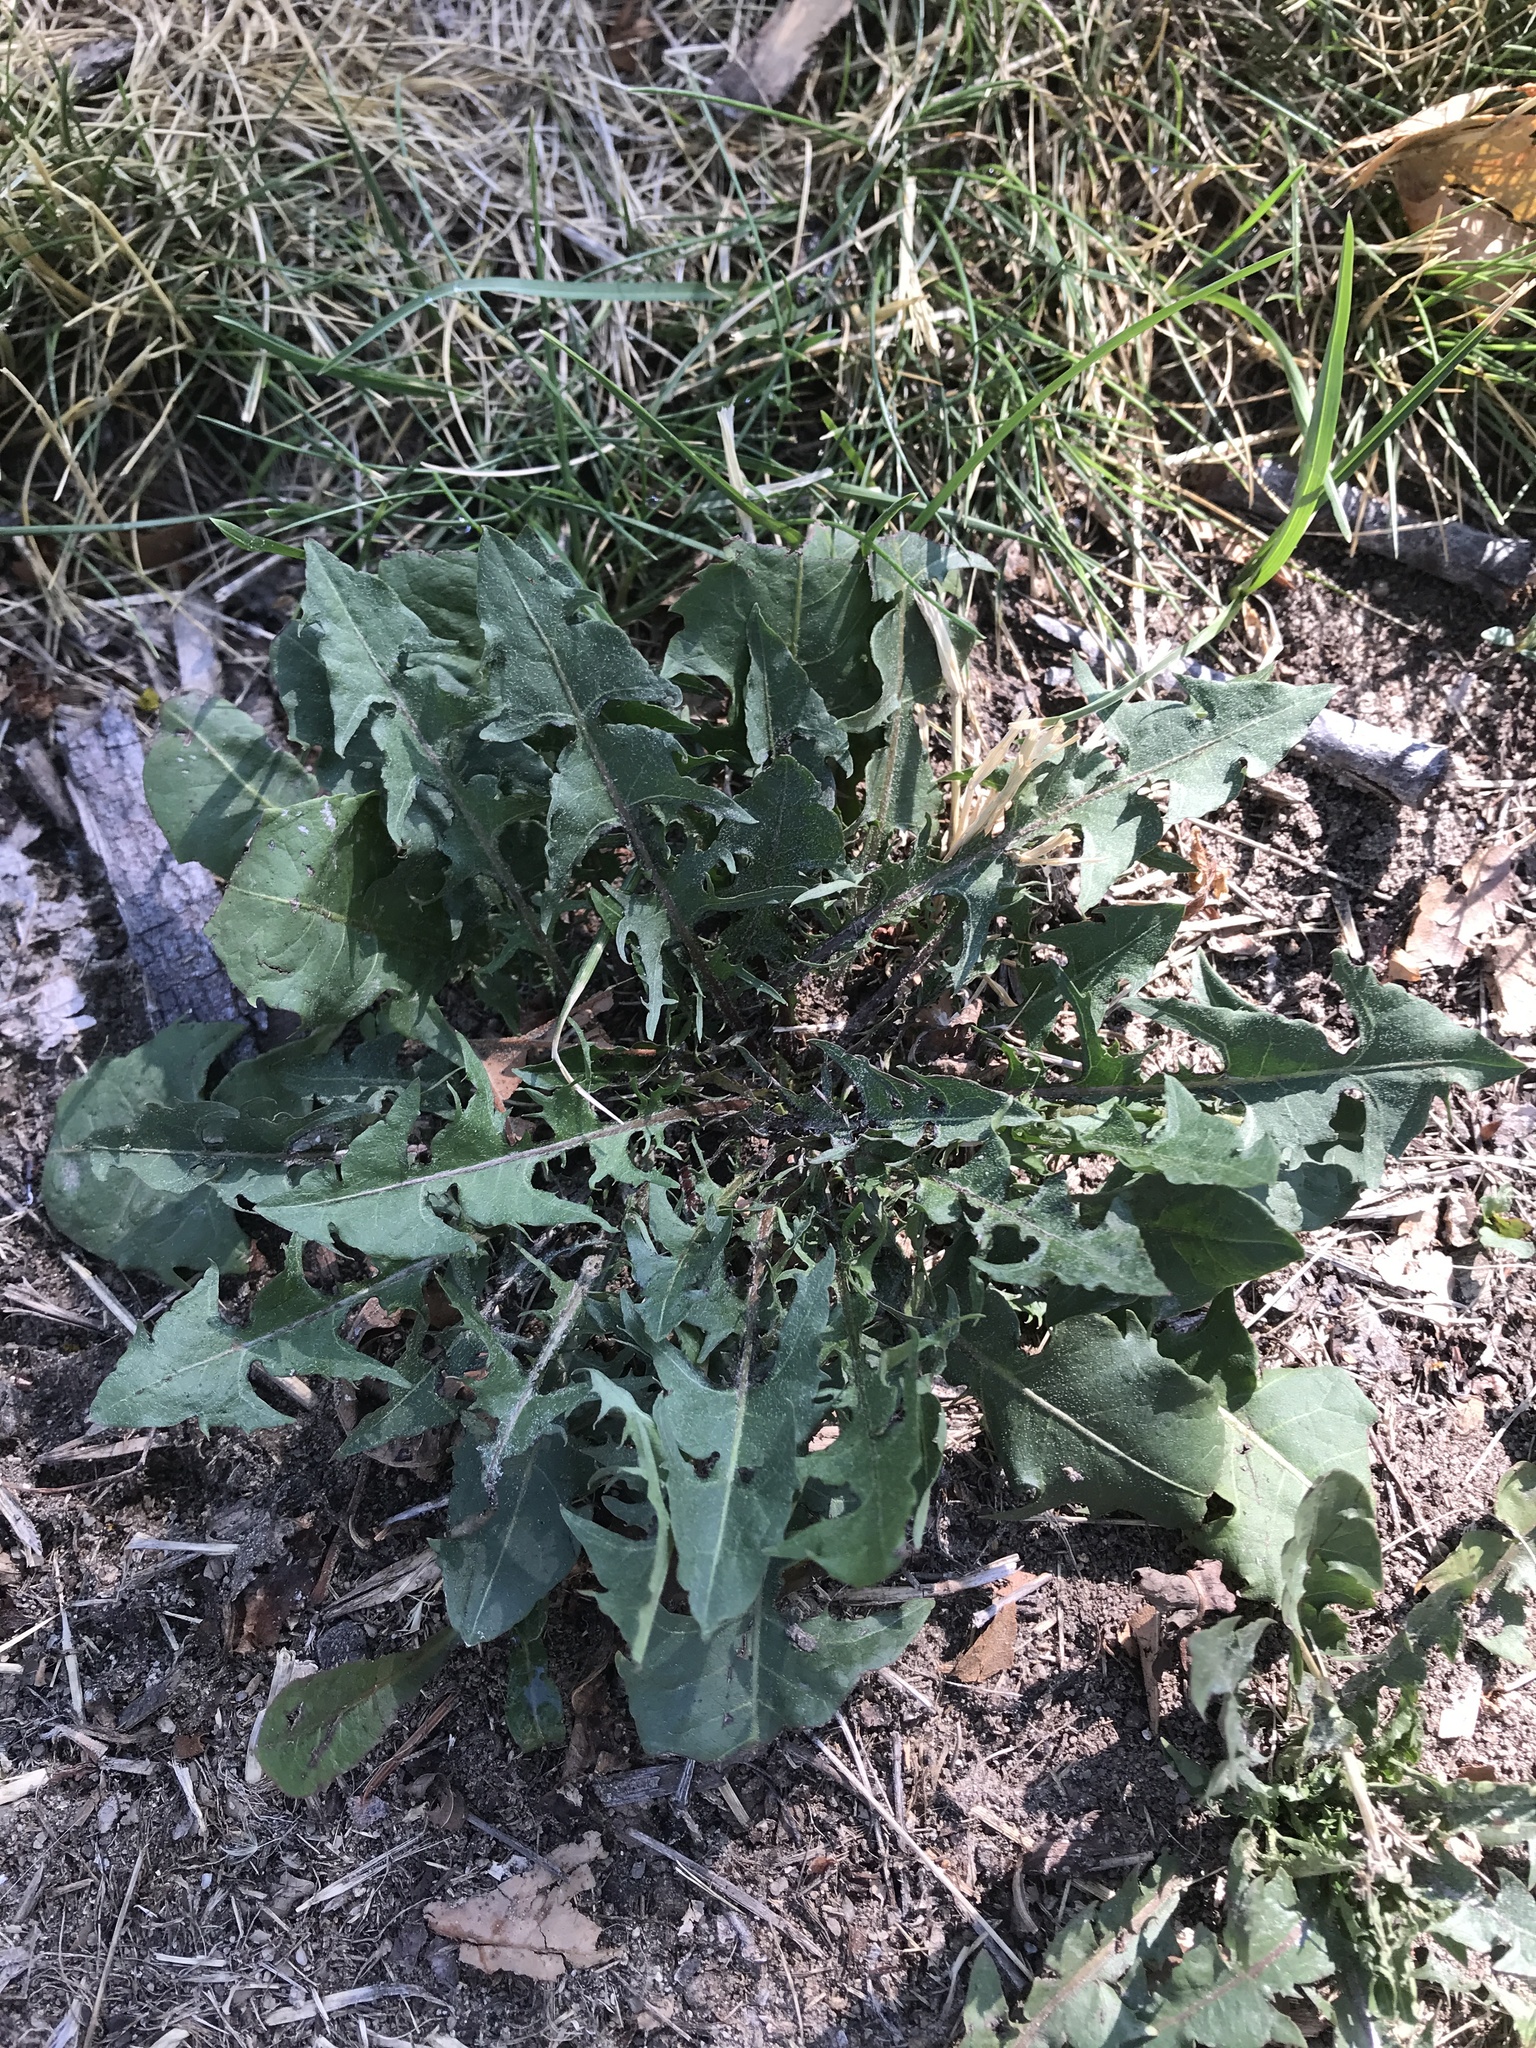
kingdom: Plantae
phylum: Tracheophyta
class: Magnoliopsida
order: Asterales
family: Asteraceae
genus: Taraxacum
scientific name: Taraxacum officinale
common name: Common dandelion
